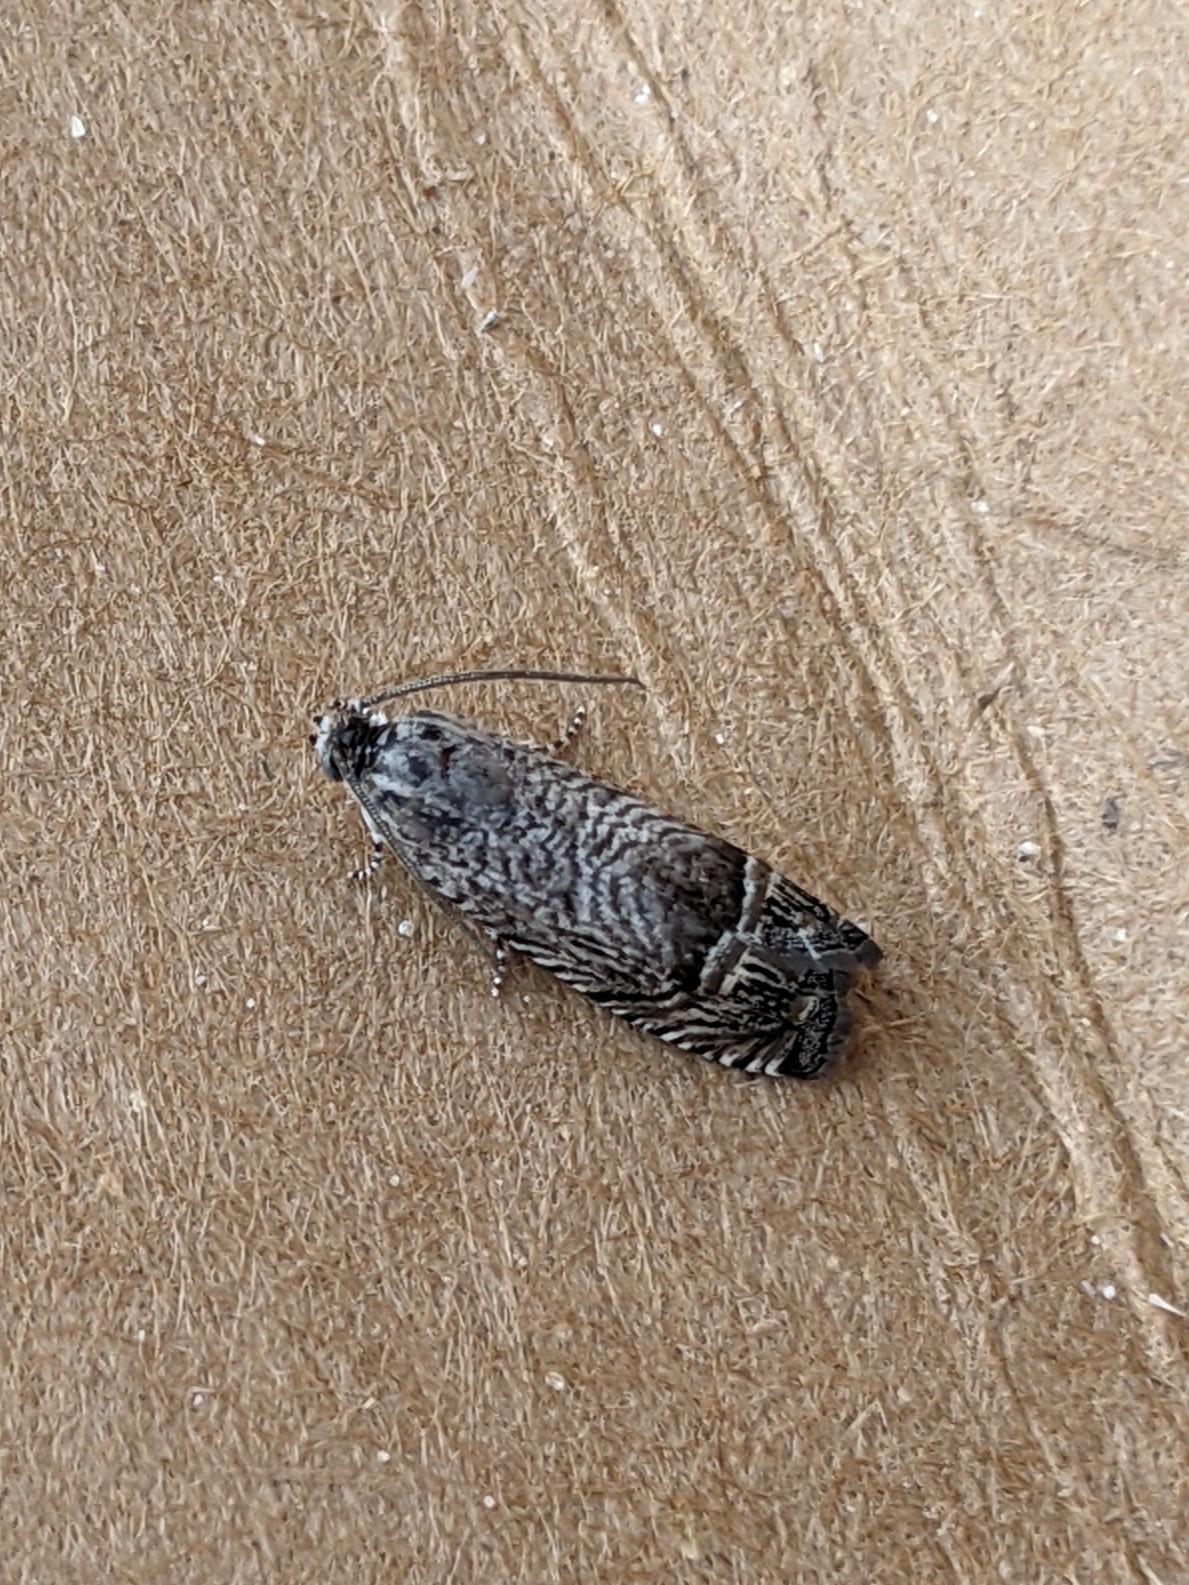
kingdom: Animalia
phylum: Arthropoda
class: Insecta
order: Lepidoptera
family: Tortricidae
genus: Ofatulena
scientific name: Ofatulena duodecemstriata
